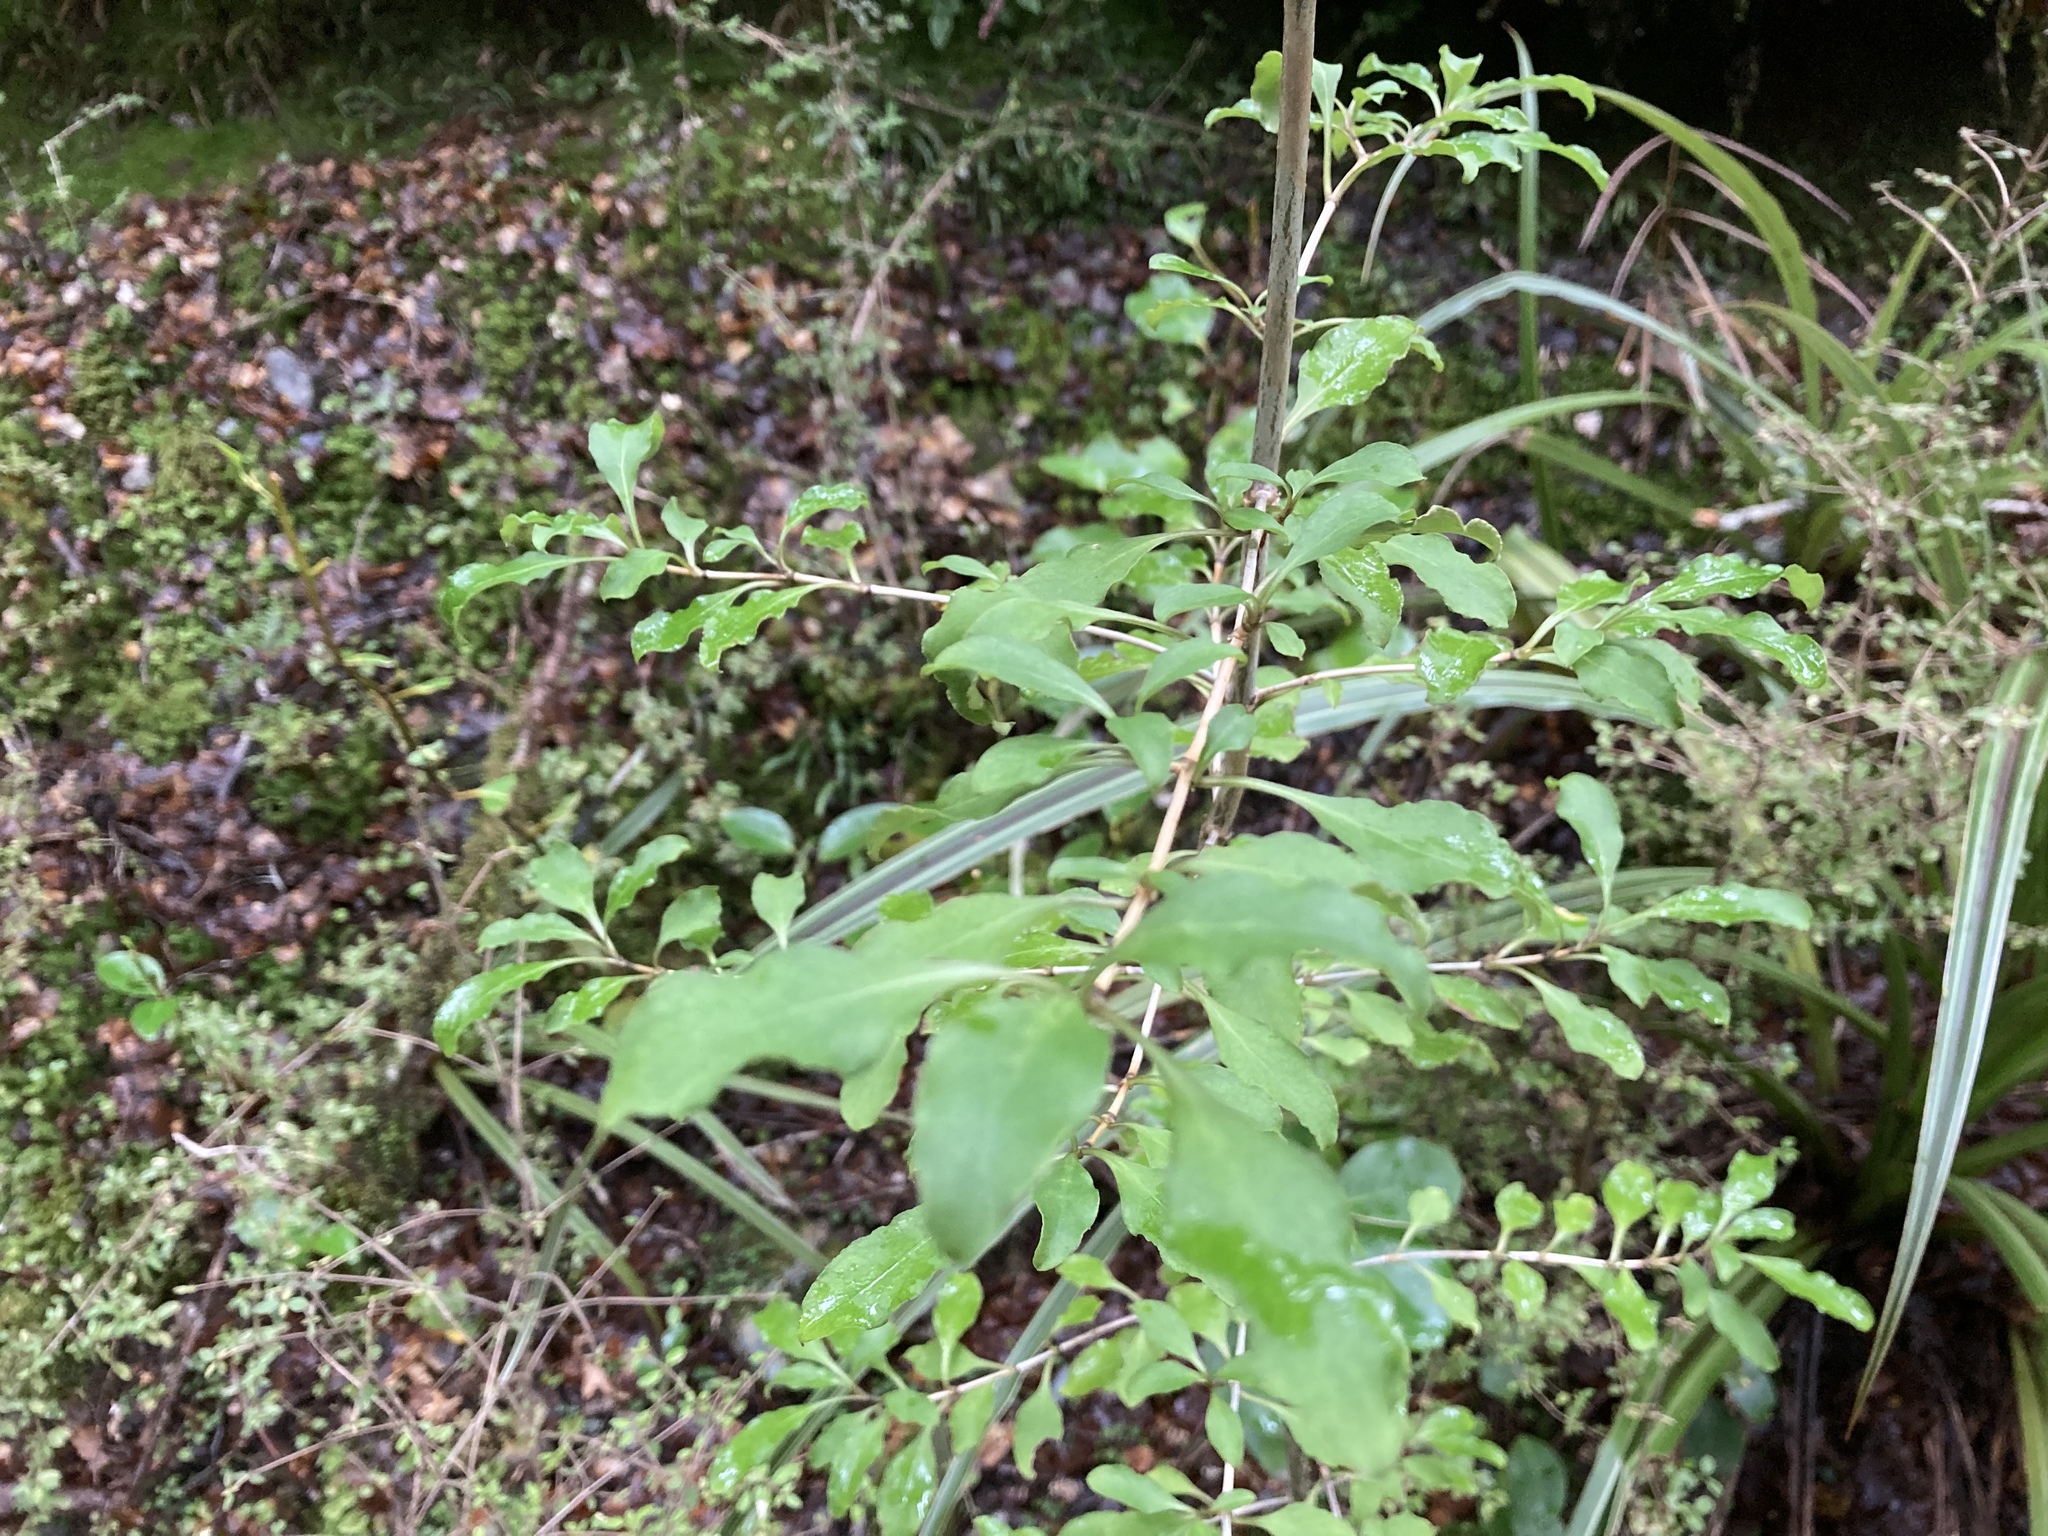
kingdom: Plantae
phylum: Tracheophyta
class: Magnoliopsida
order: Gentianales
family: Rubiaceae
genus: Coprosma
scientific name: Coprosma foetidissima
